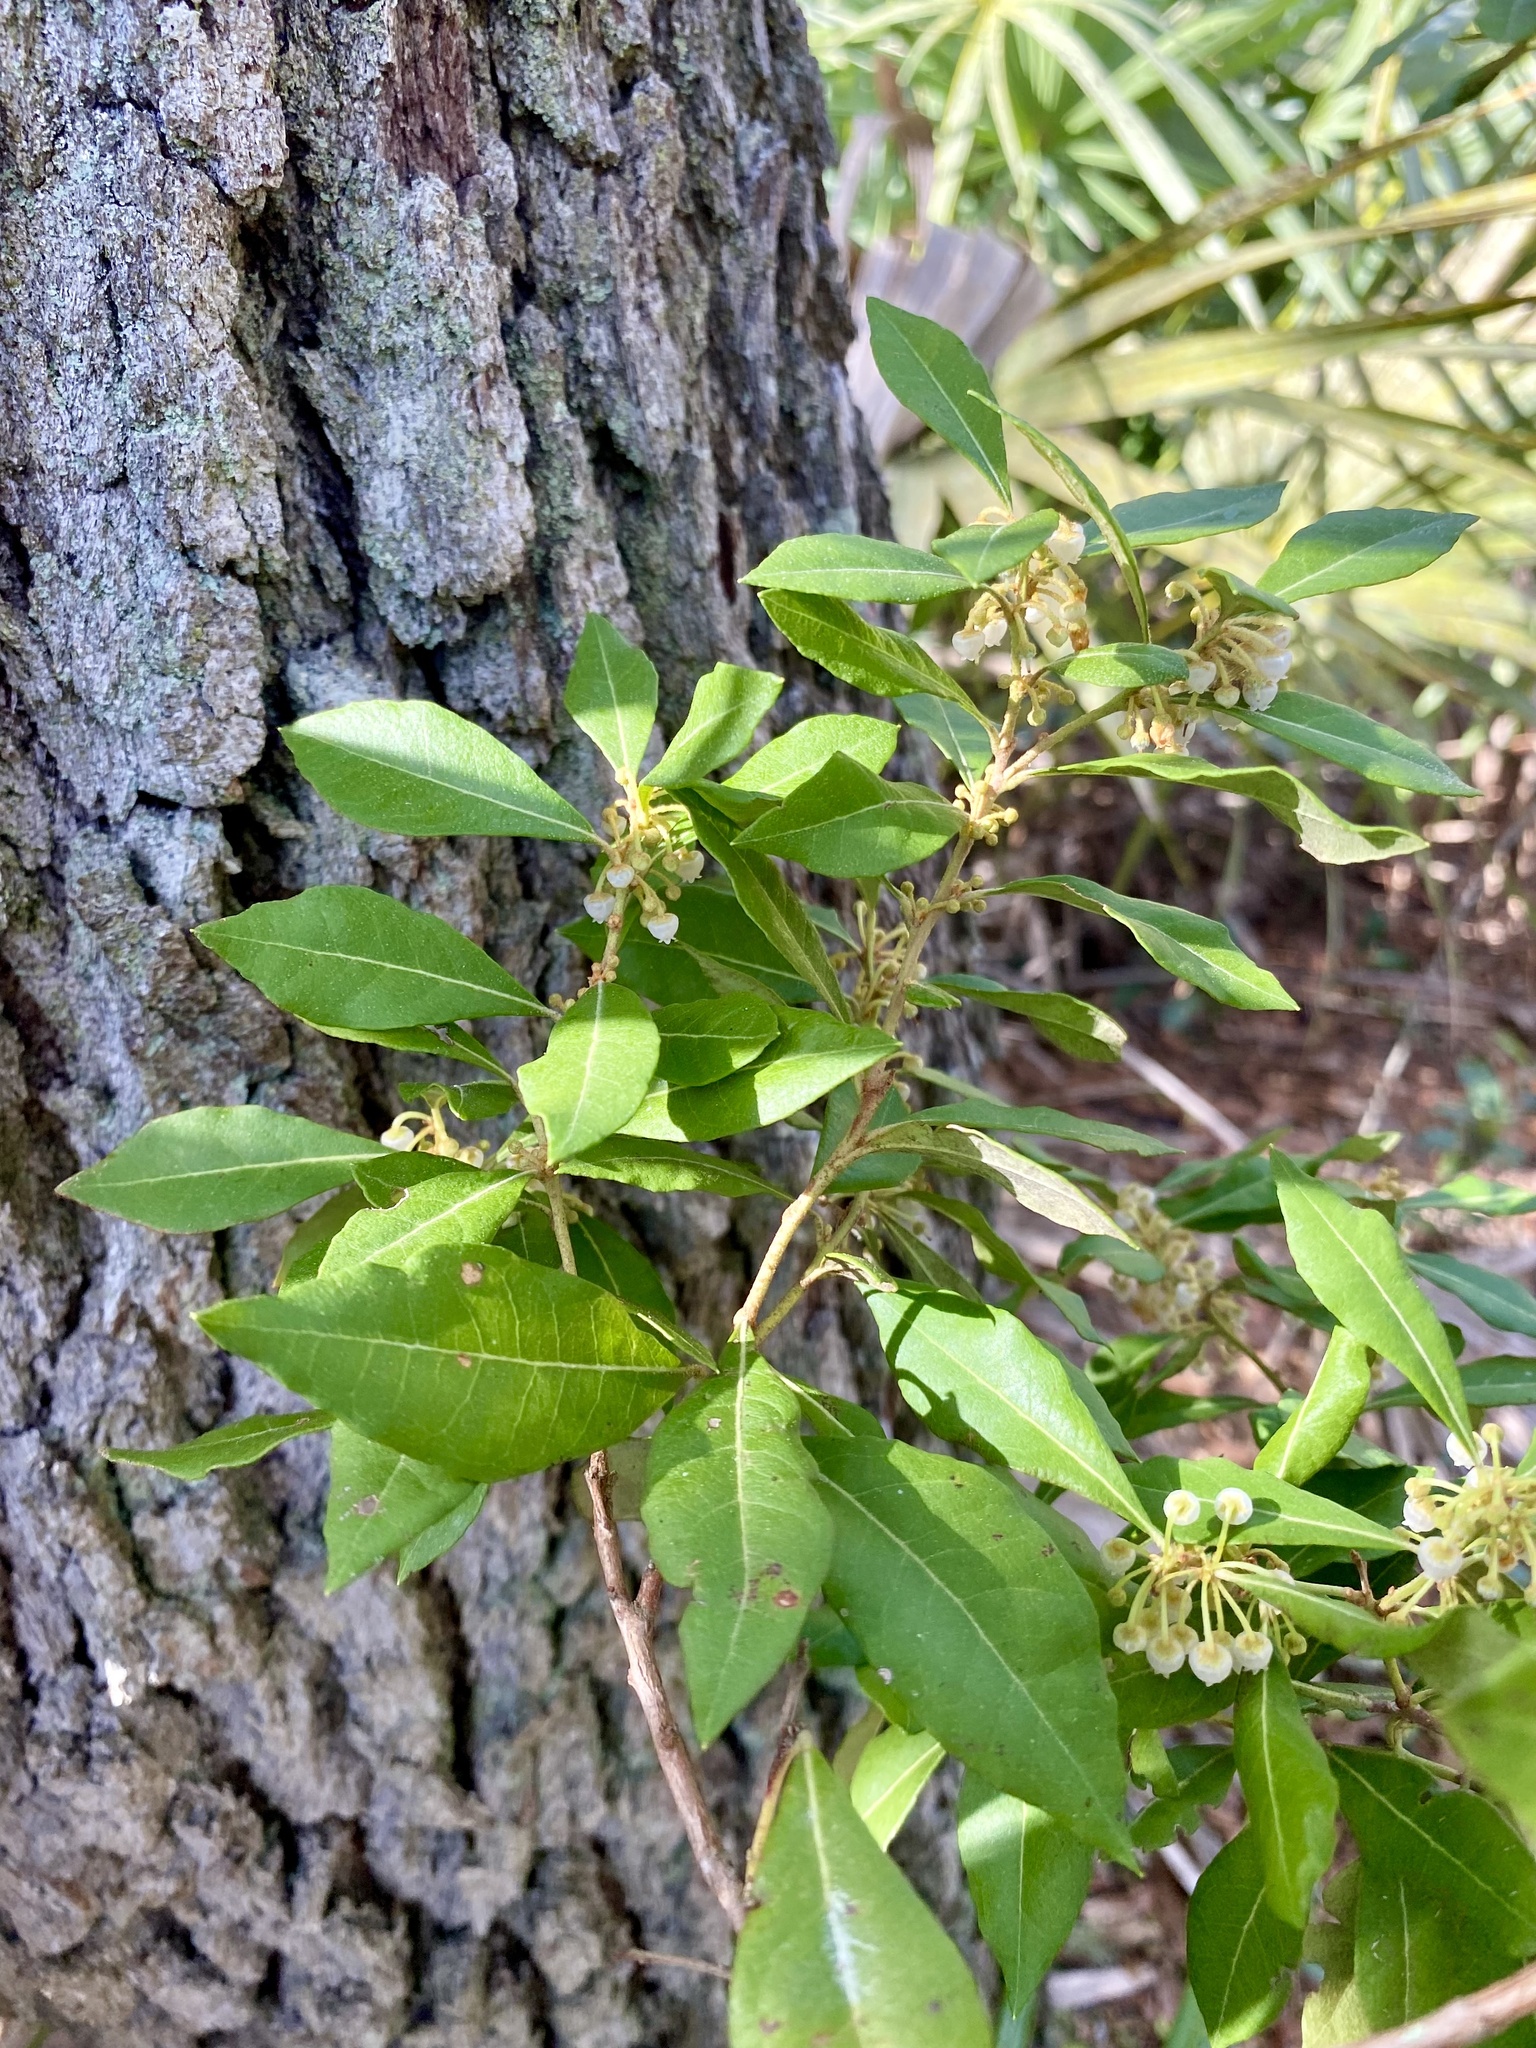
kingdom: Plantae
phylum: Tracheophyta
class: Magnoliopsida
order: Ericales
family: Ericaceae
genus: Lyonia
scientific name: Lyonia ferruginea
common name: Rusty lyonia
